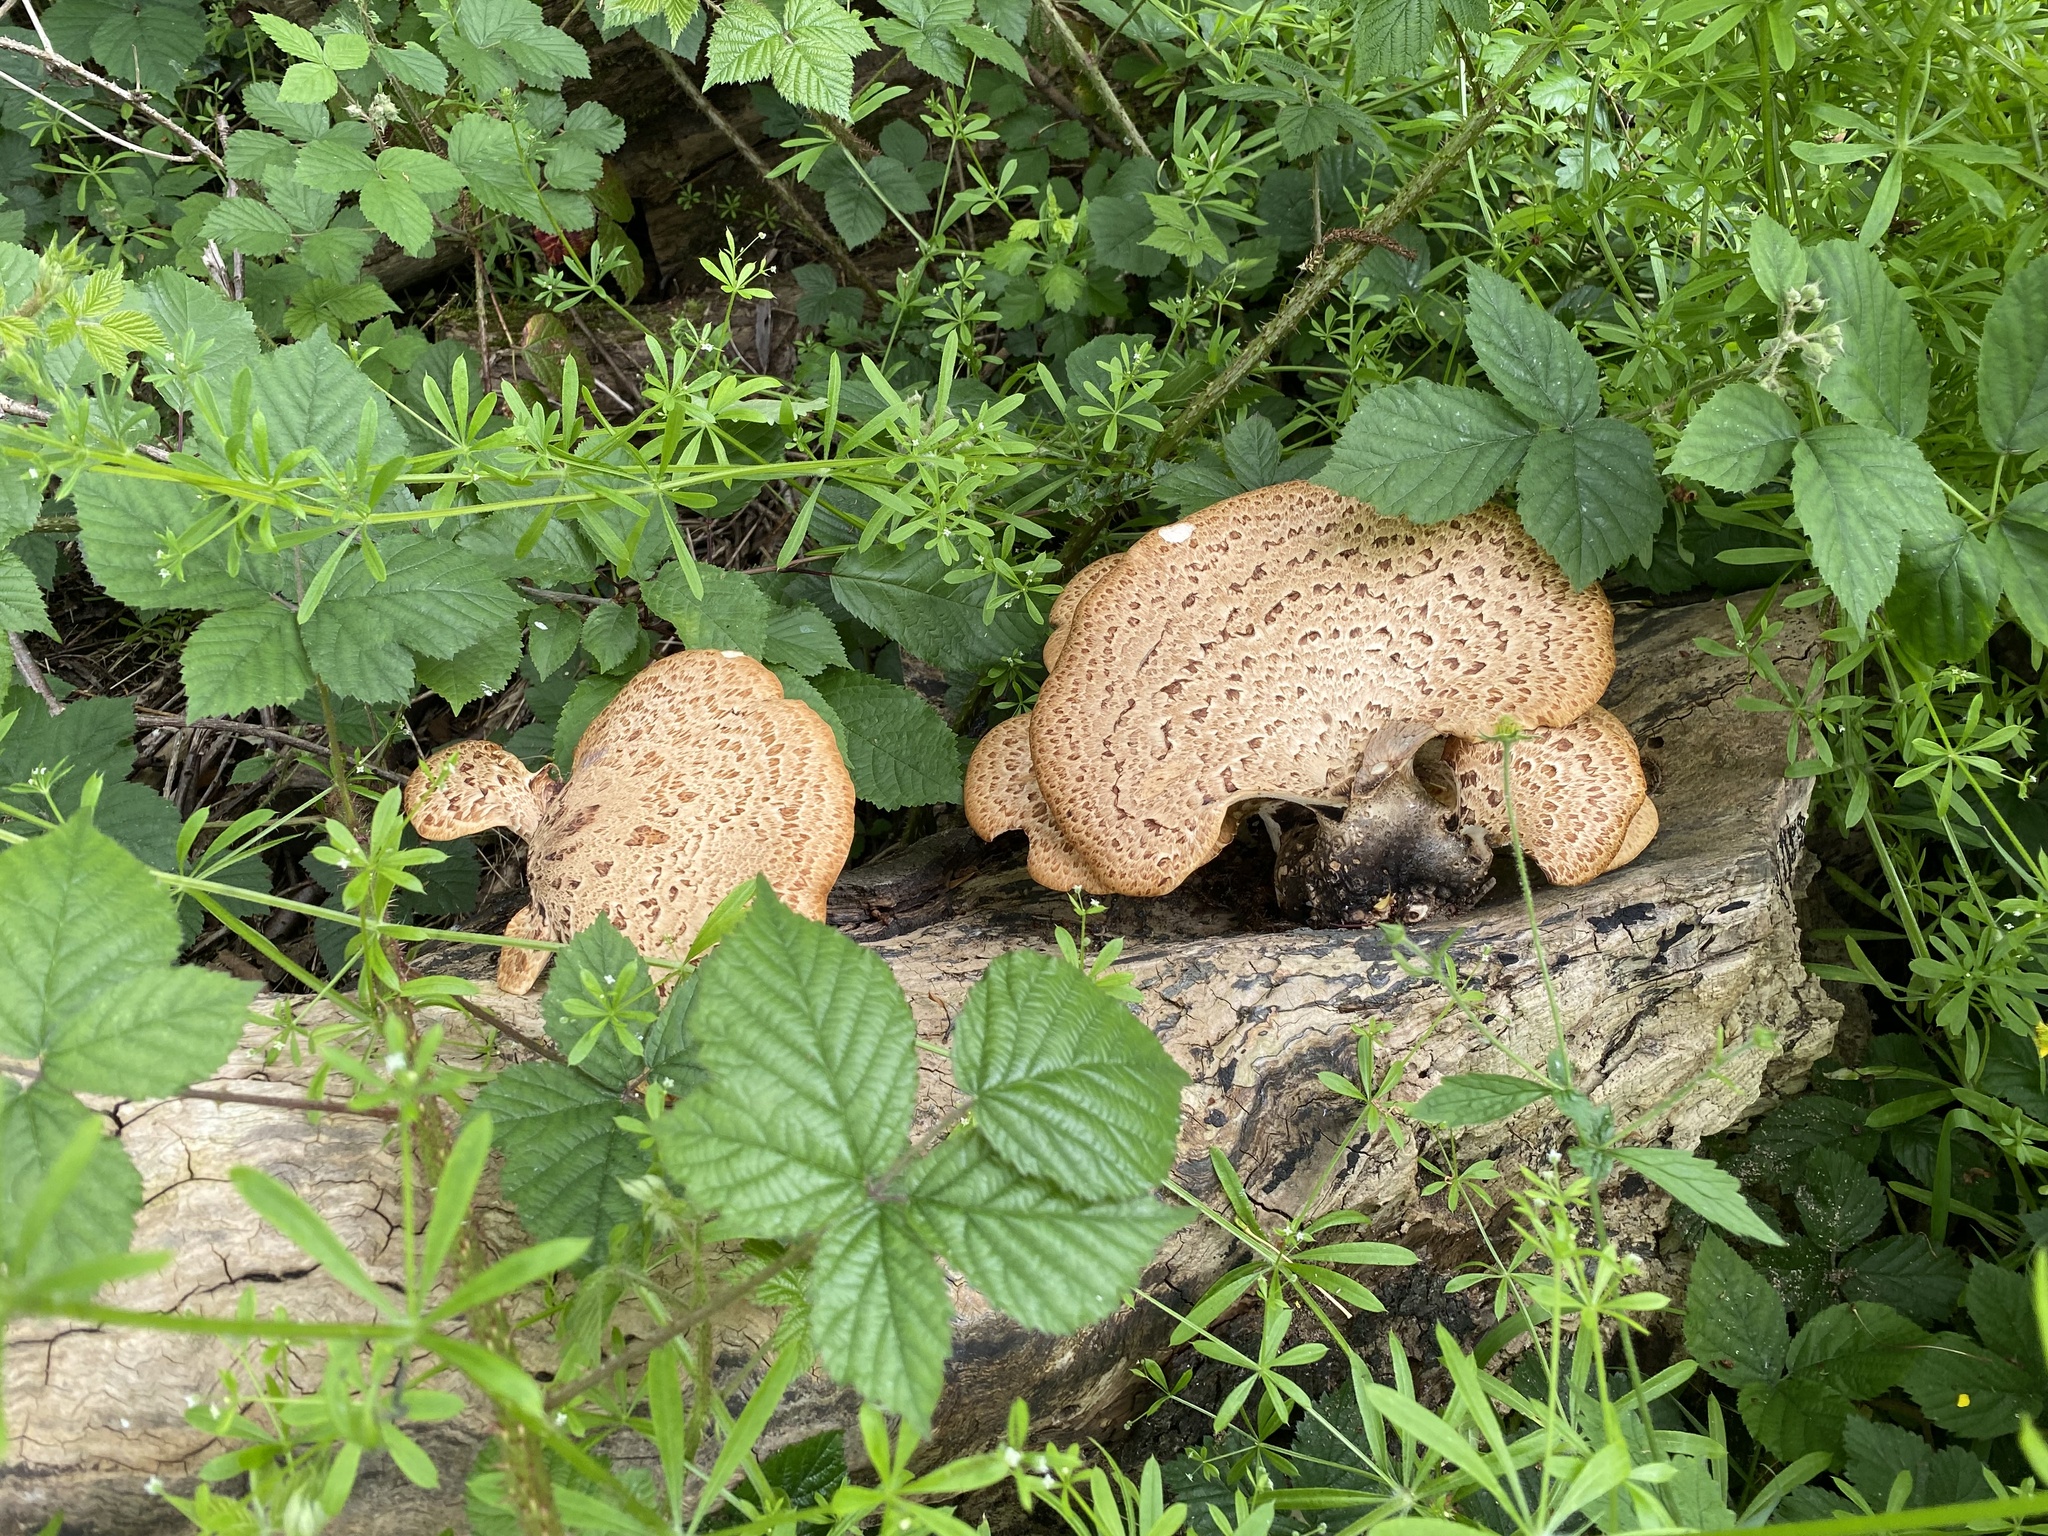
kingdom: Fungi
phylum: Basidiomycota
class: Agaricomycetes
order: Polyporales
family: Polyporaceae
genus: Cerioporus
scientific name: Cerioporus squamosus
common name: Dryad's saddle
